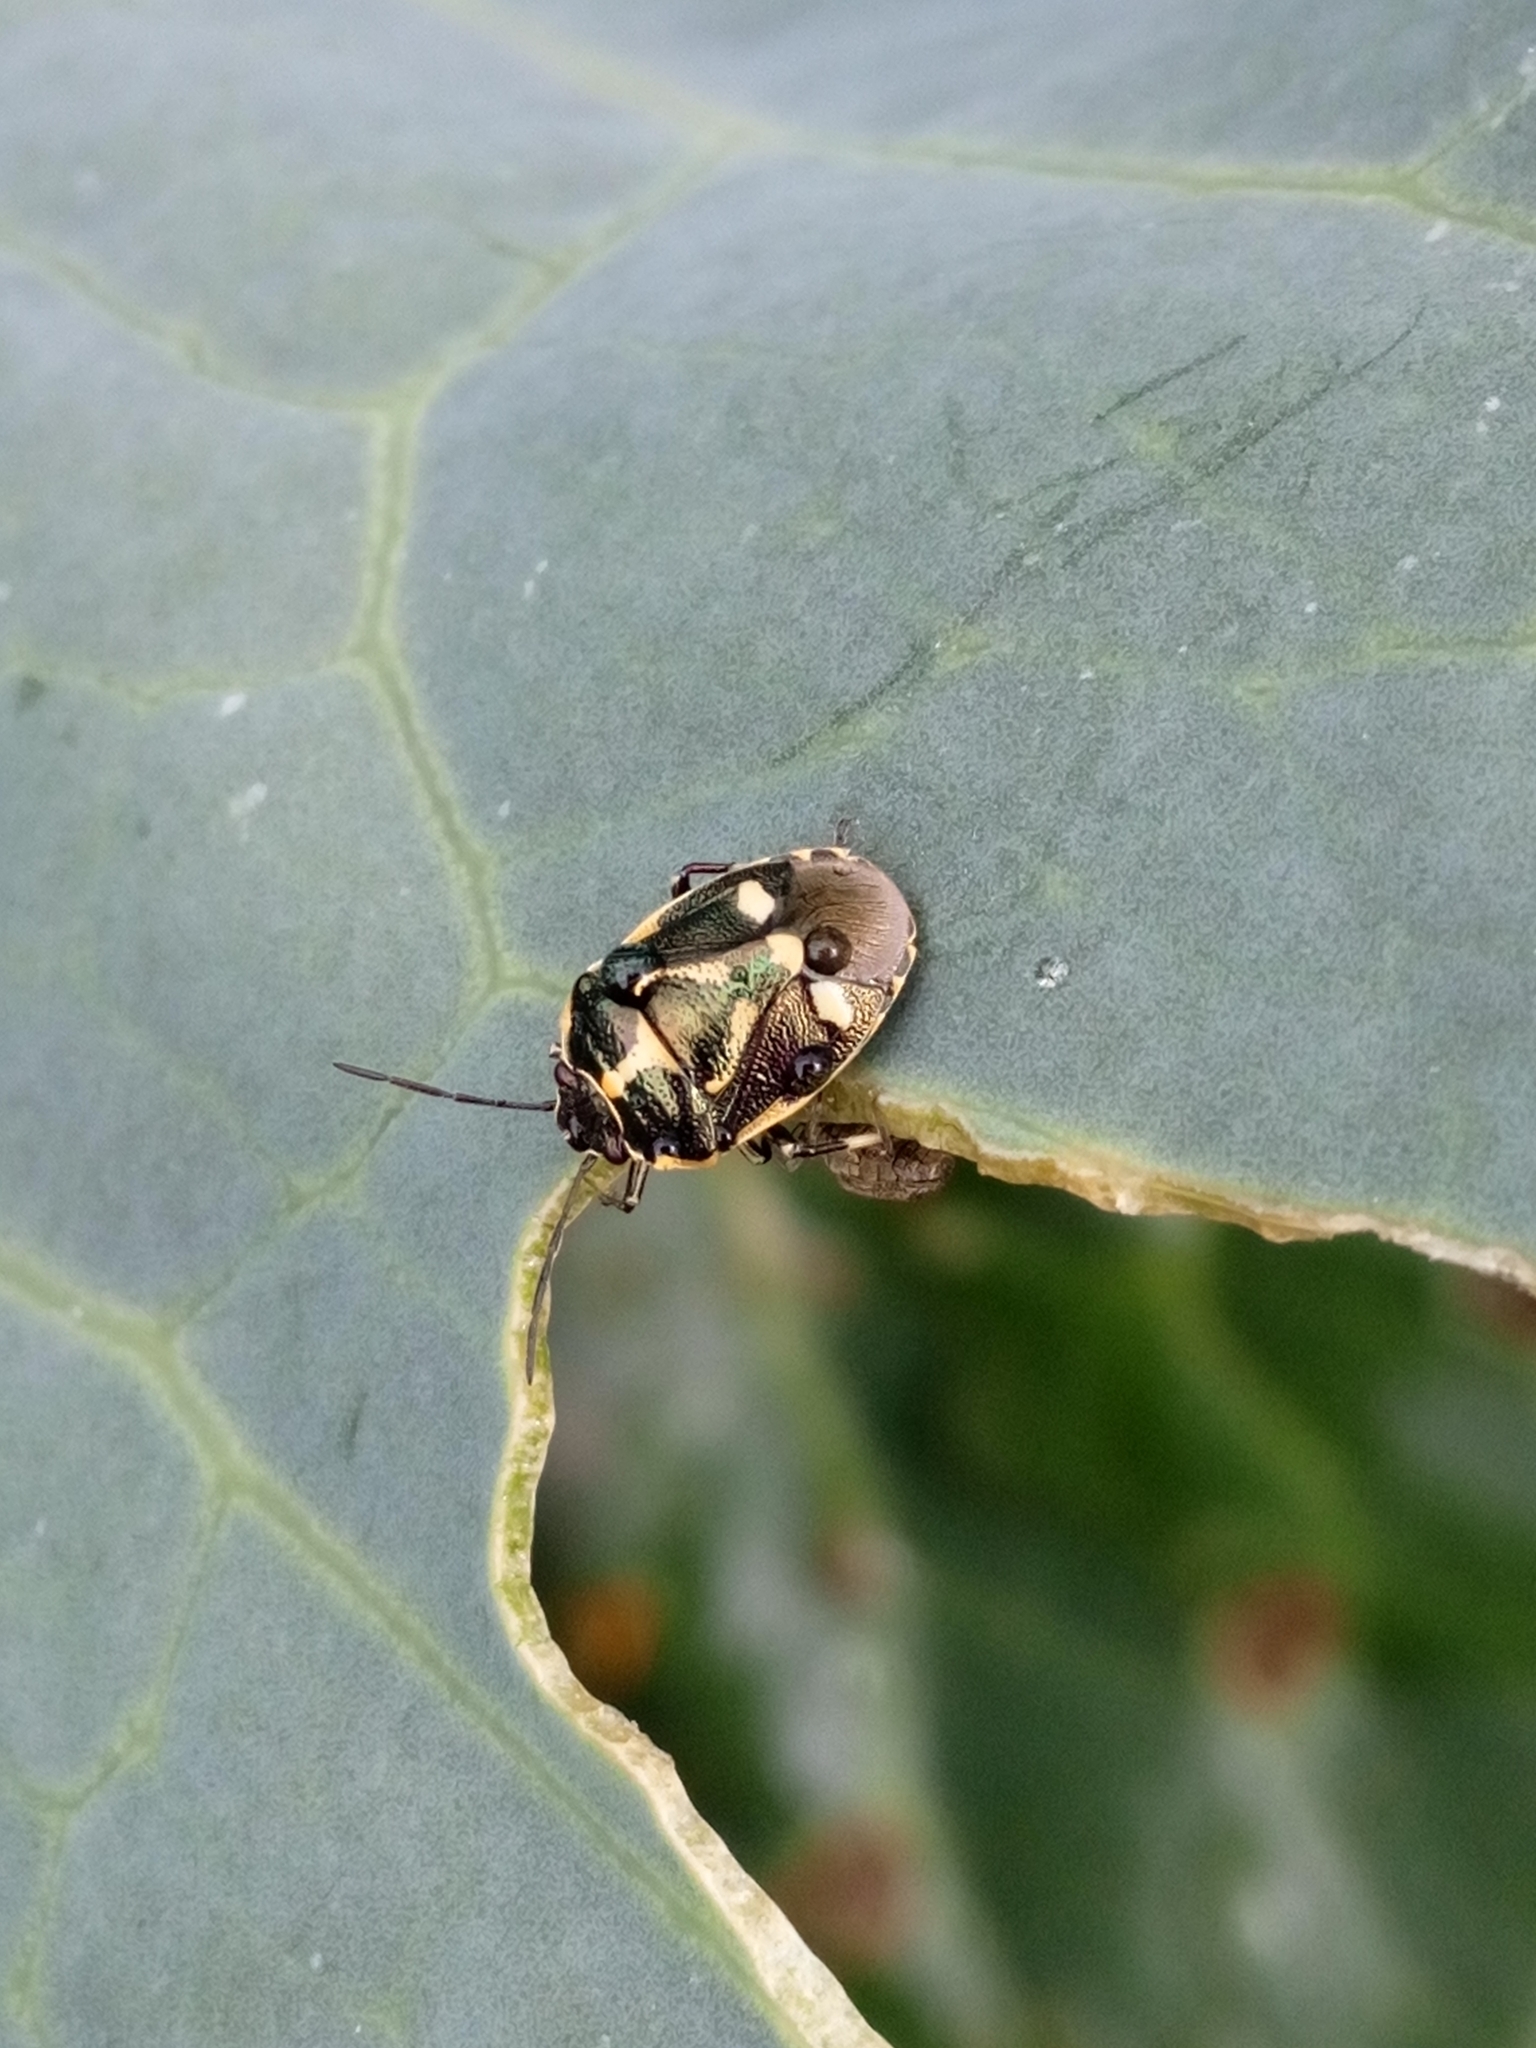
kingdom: Animalia
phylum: Arthropoda
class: Insecta
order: Hemiptera
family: Pentatomidae
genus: Eurydema
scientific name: Eurydema oleracea
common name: Cabbage bug
